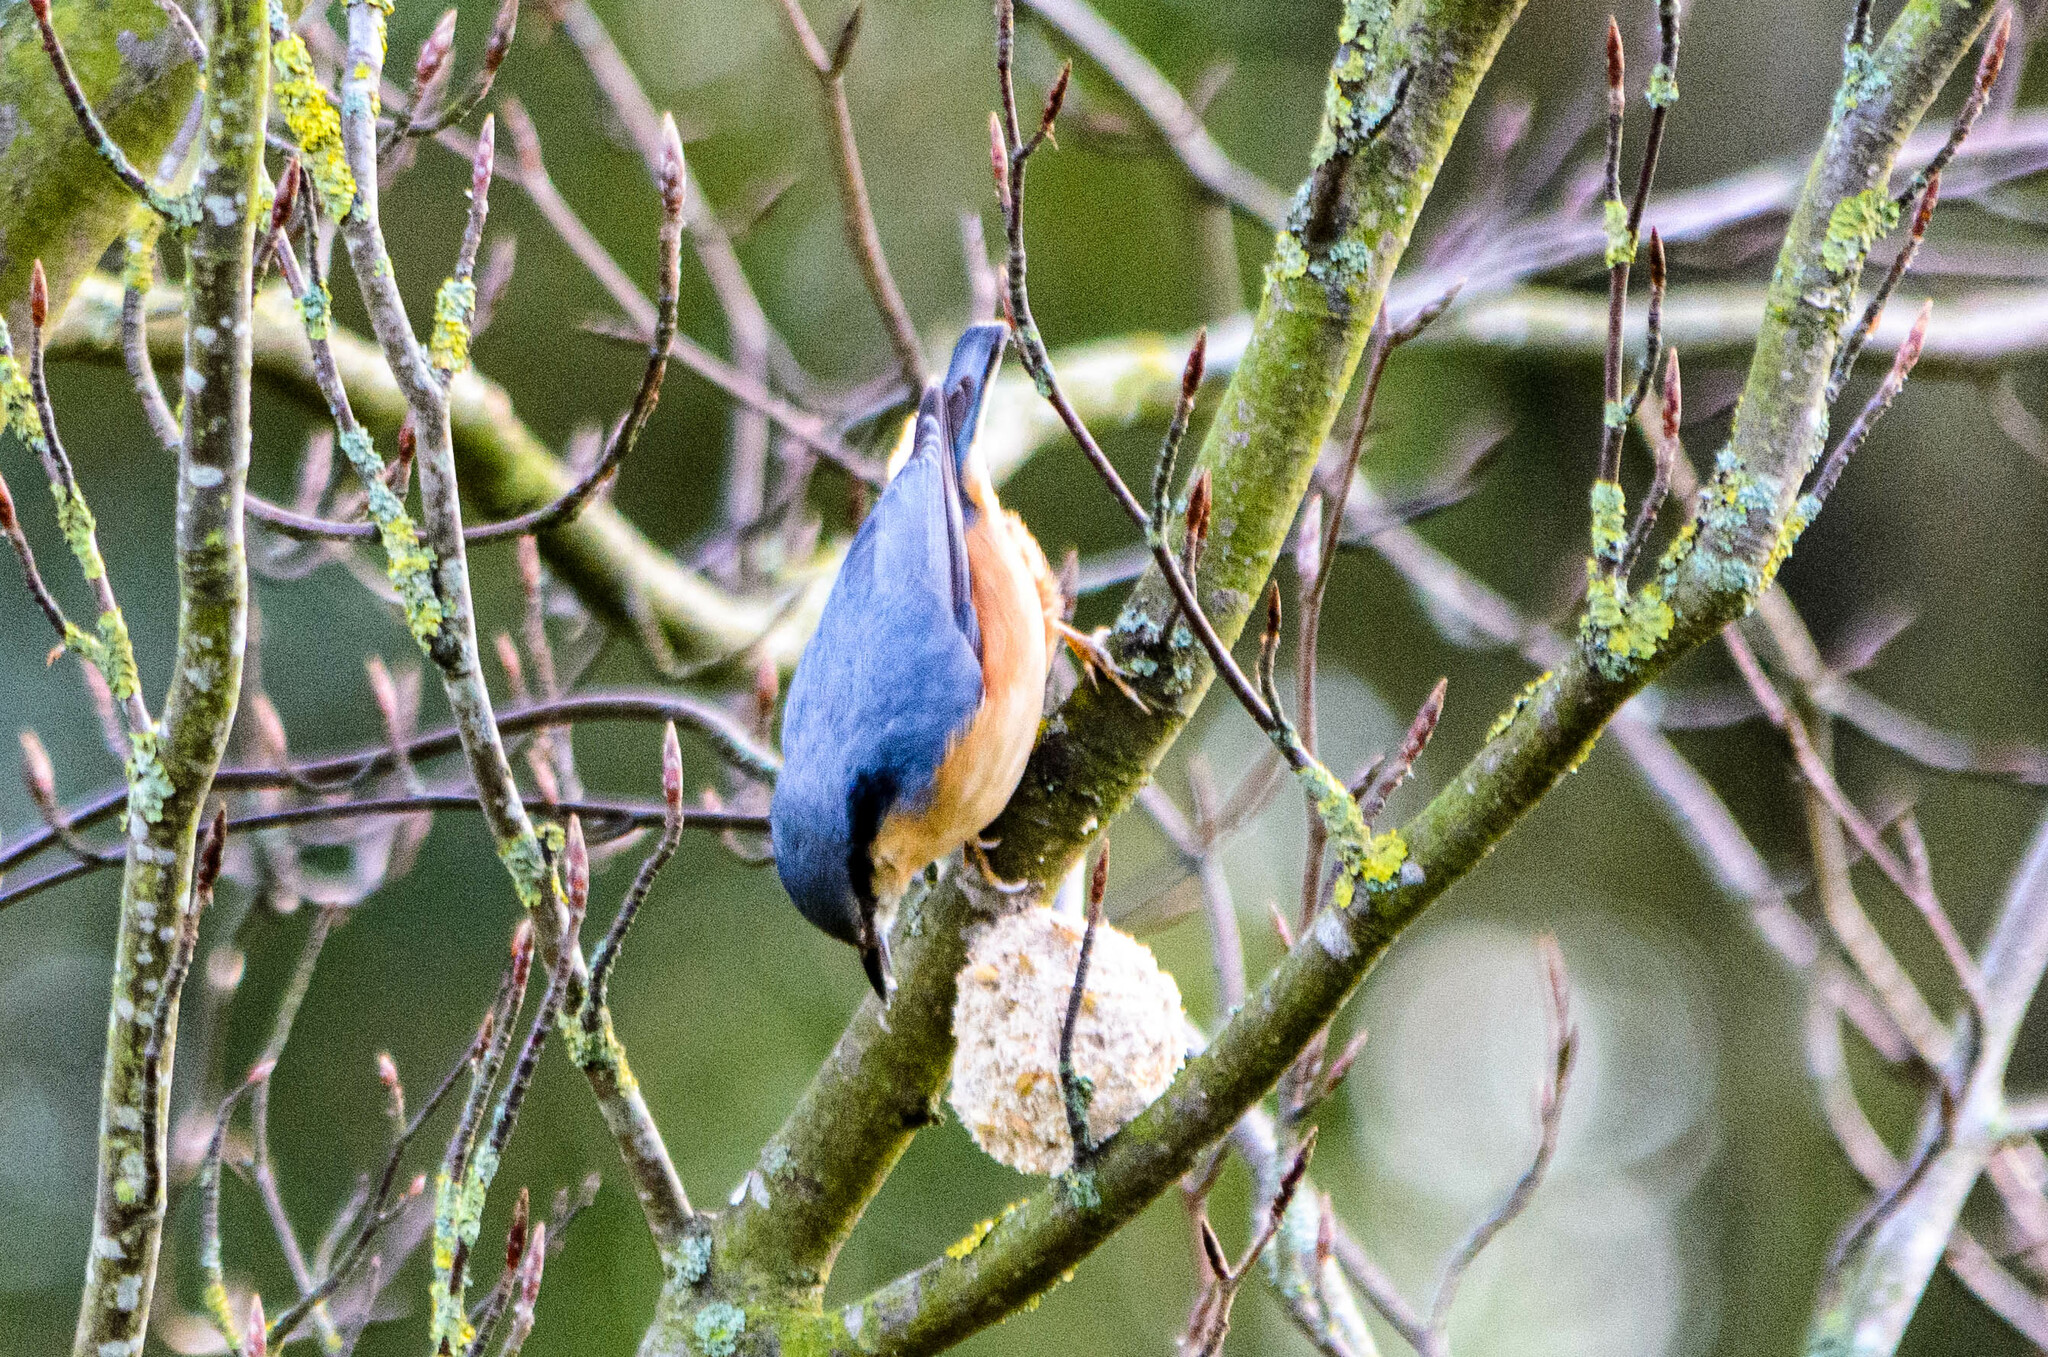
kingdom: Animalia
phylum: Chordata
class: Aves
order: Passeriformes
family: Sittidae
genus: Sitta
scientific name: Sitta europaea
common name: Eurasian nuthatch
